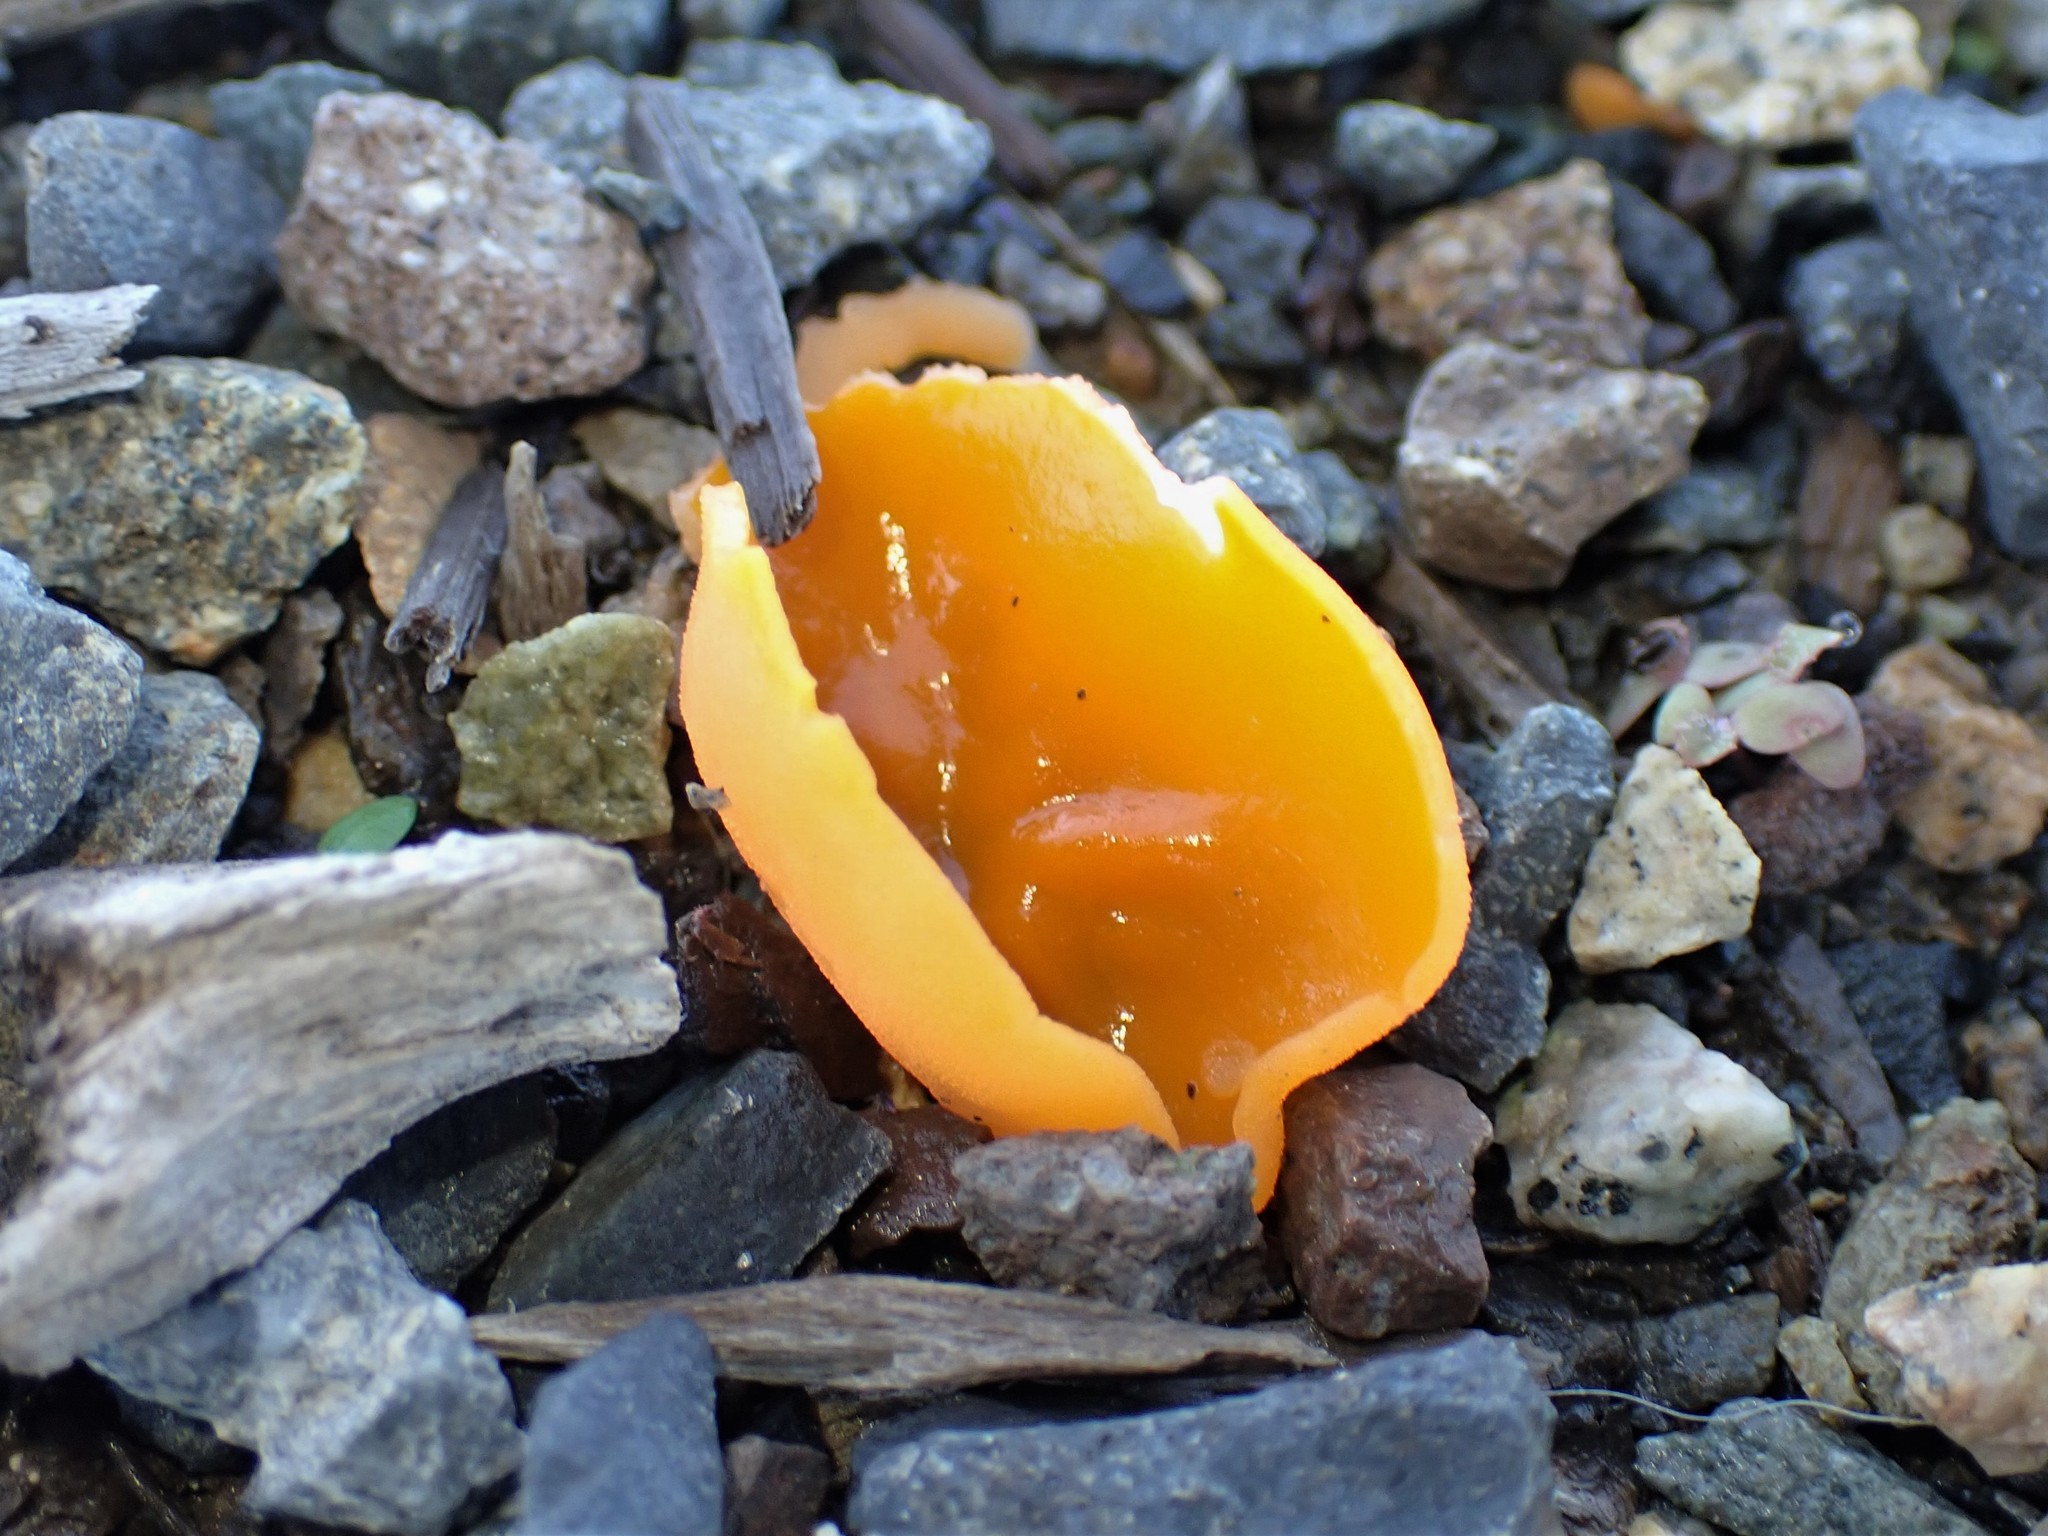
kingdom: Fungi
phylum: Ascomycota
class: Pezizomycetes
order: Pezizales
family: Pyronemataceae
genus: Aleuria
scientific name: Aleuria aurantia
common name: Orange peel fungus
